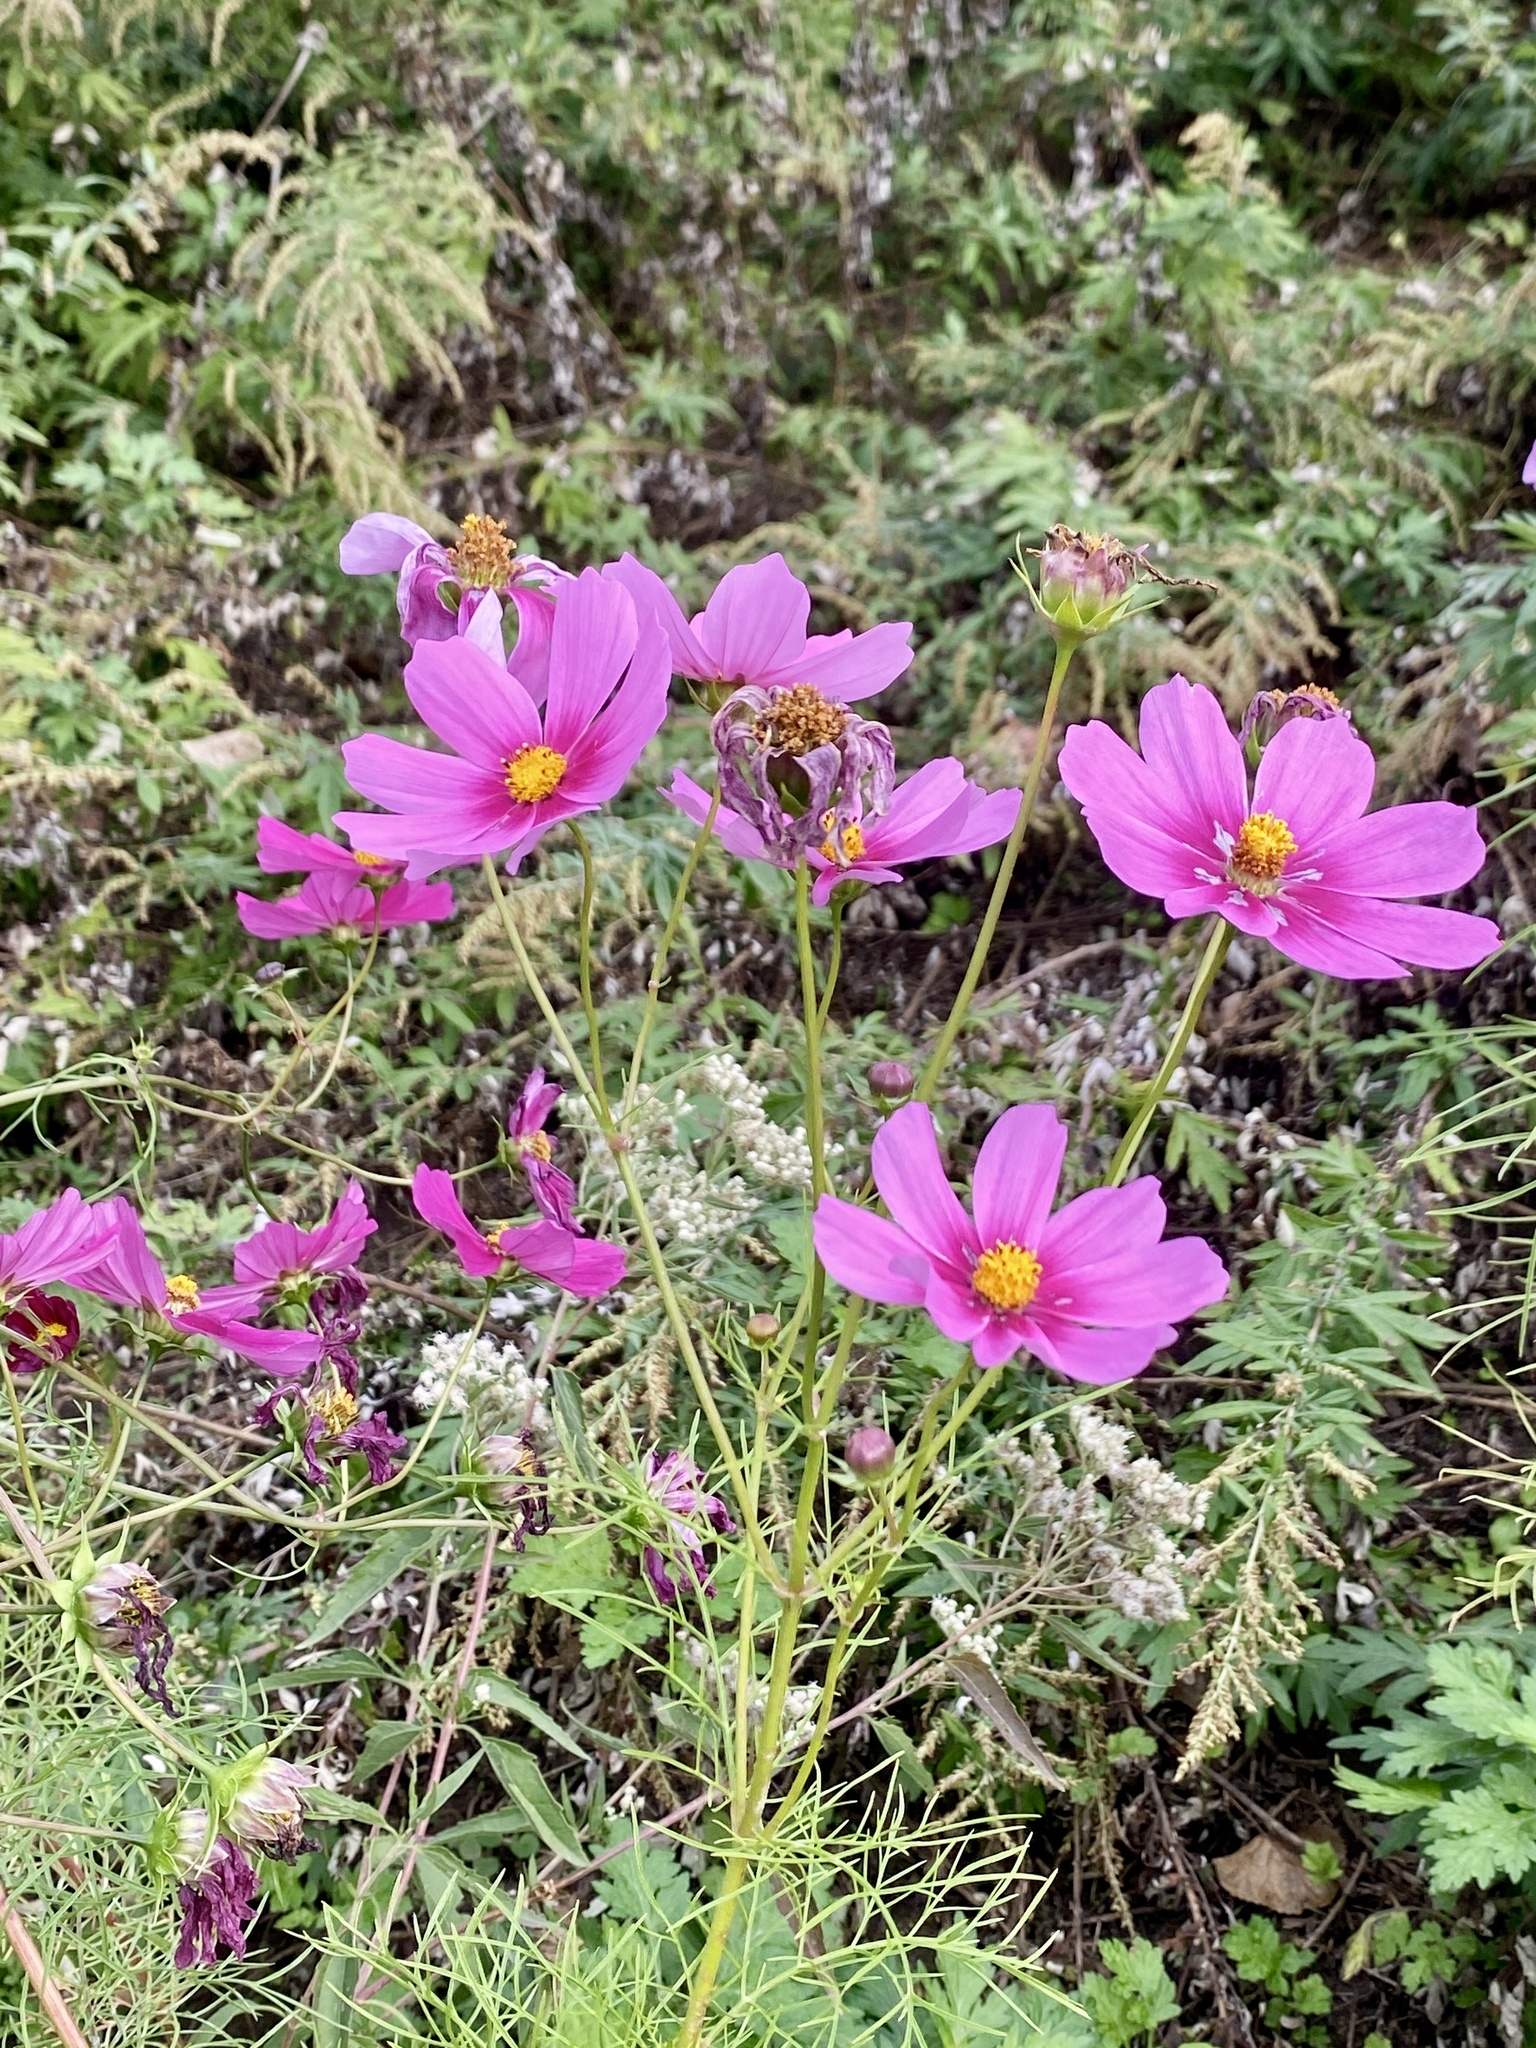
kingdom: Plantae
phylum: Tracheophyta
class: Magnoliopsida
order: Asterales
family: Asteraceae
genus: Cosmos
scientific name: Cosmos bipinnatus
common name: Garden cosmos
